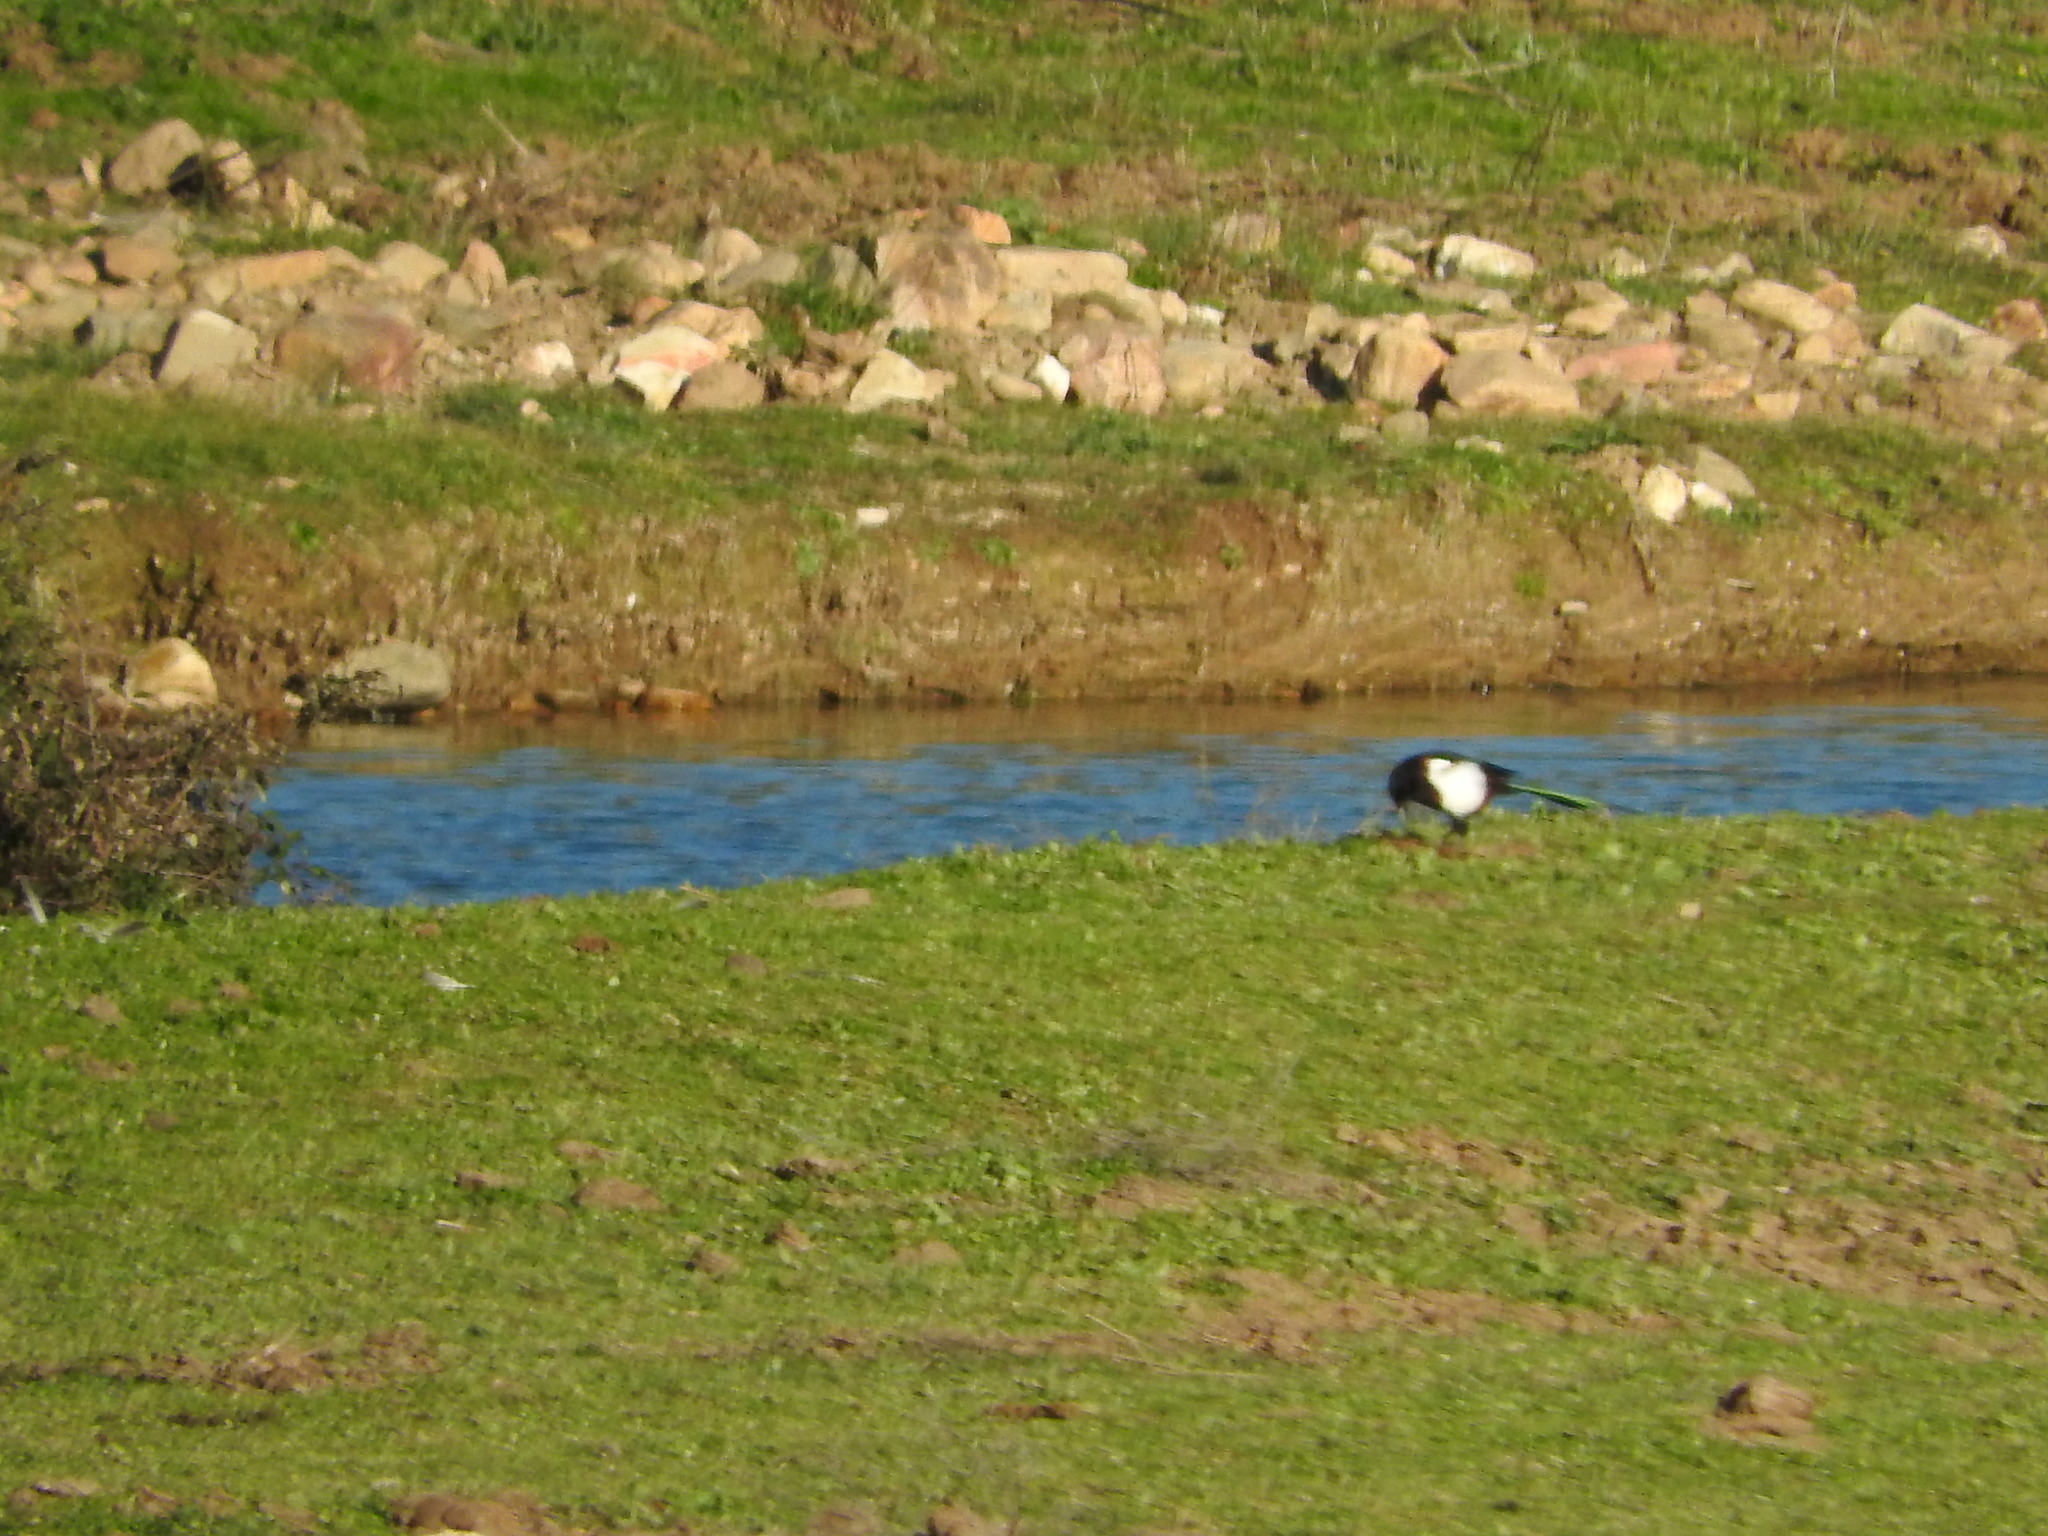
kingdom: Animalia
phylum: Chordata
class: Aves
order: Passeriformes
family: Corvidae
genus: Pica
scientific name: Pica pica
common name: Eurasian magpie
